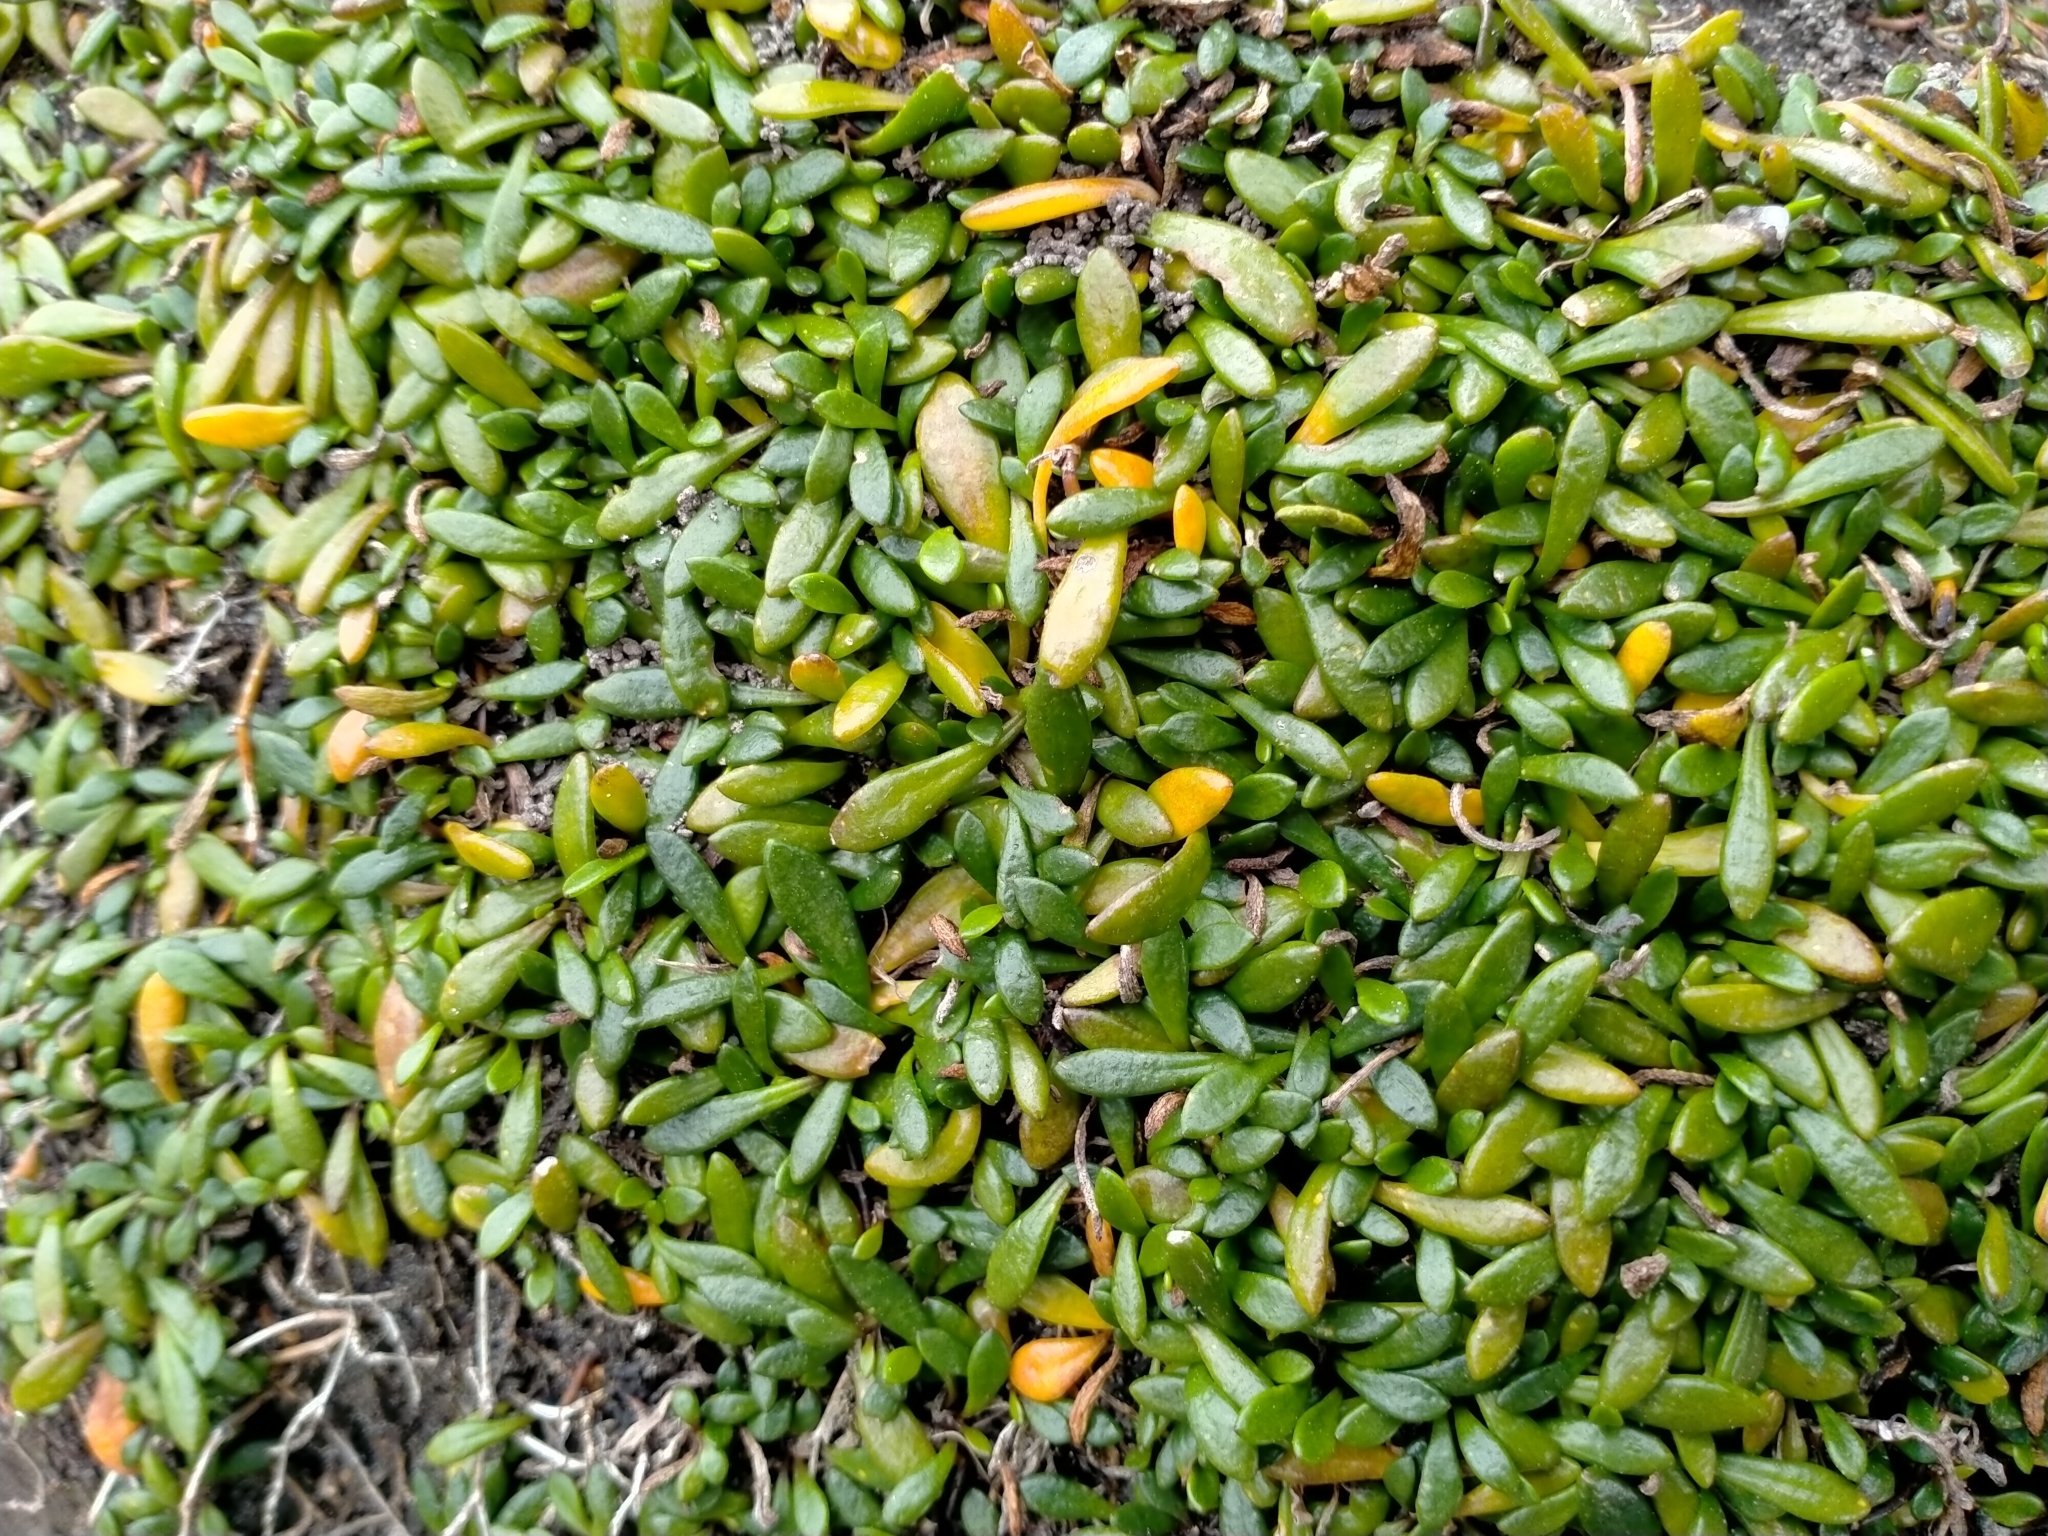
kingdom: Plantae
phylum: Tracheophyta
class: Magnoliopsida
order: Asterales
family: Goodeniaceae
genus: Goodenia
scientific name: Goodenia radicans
